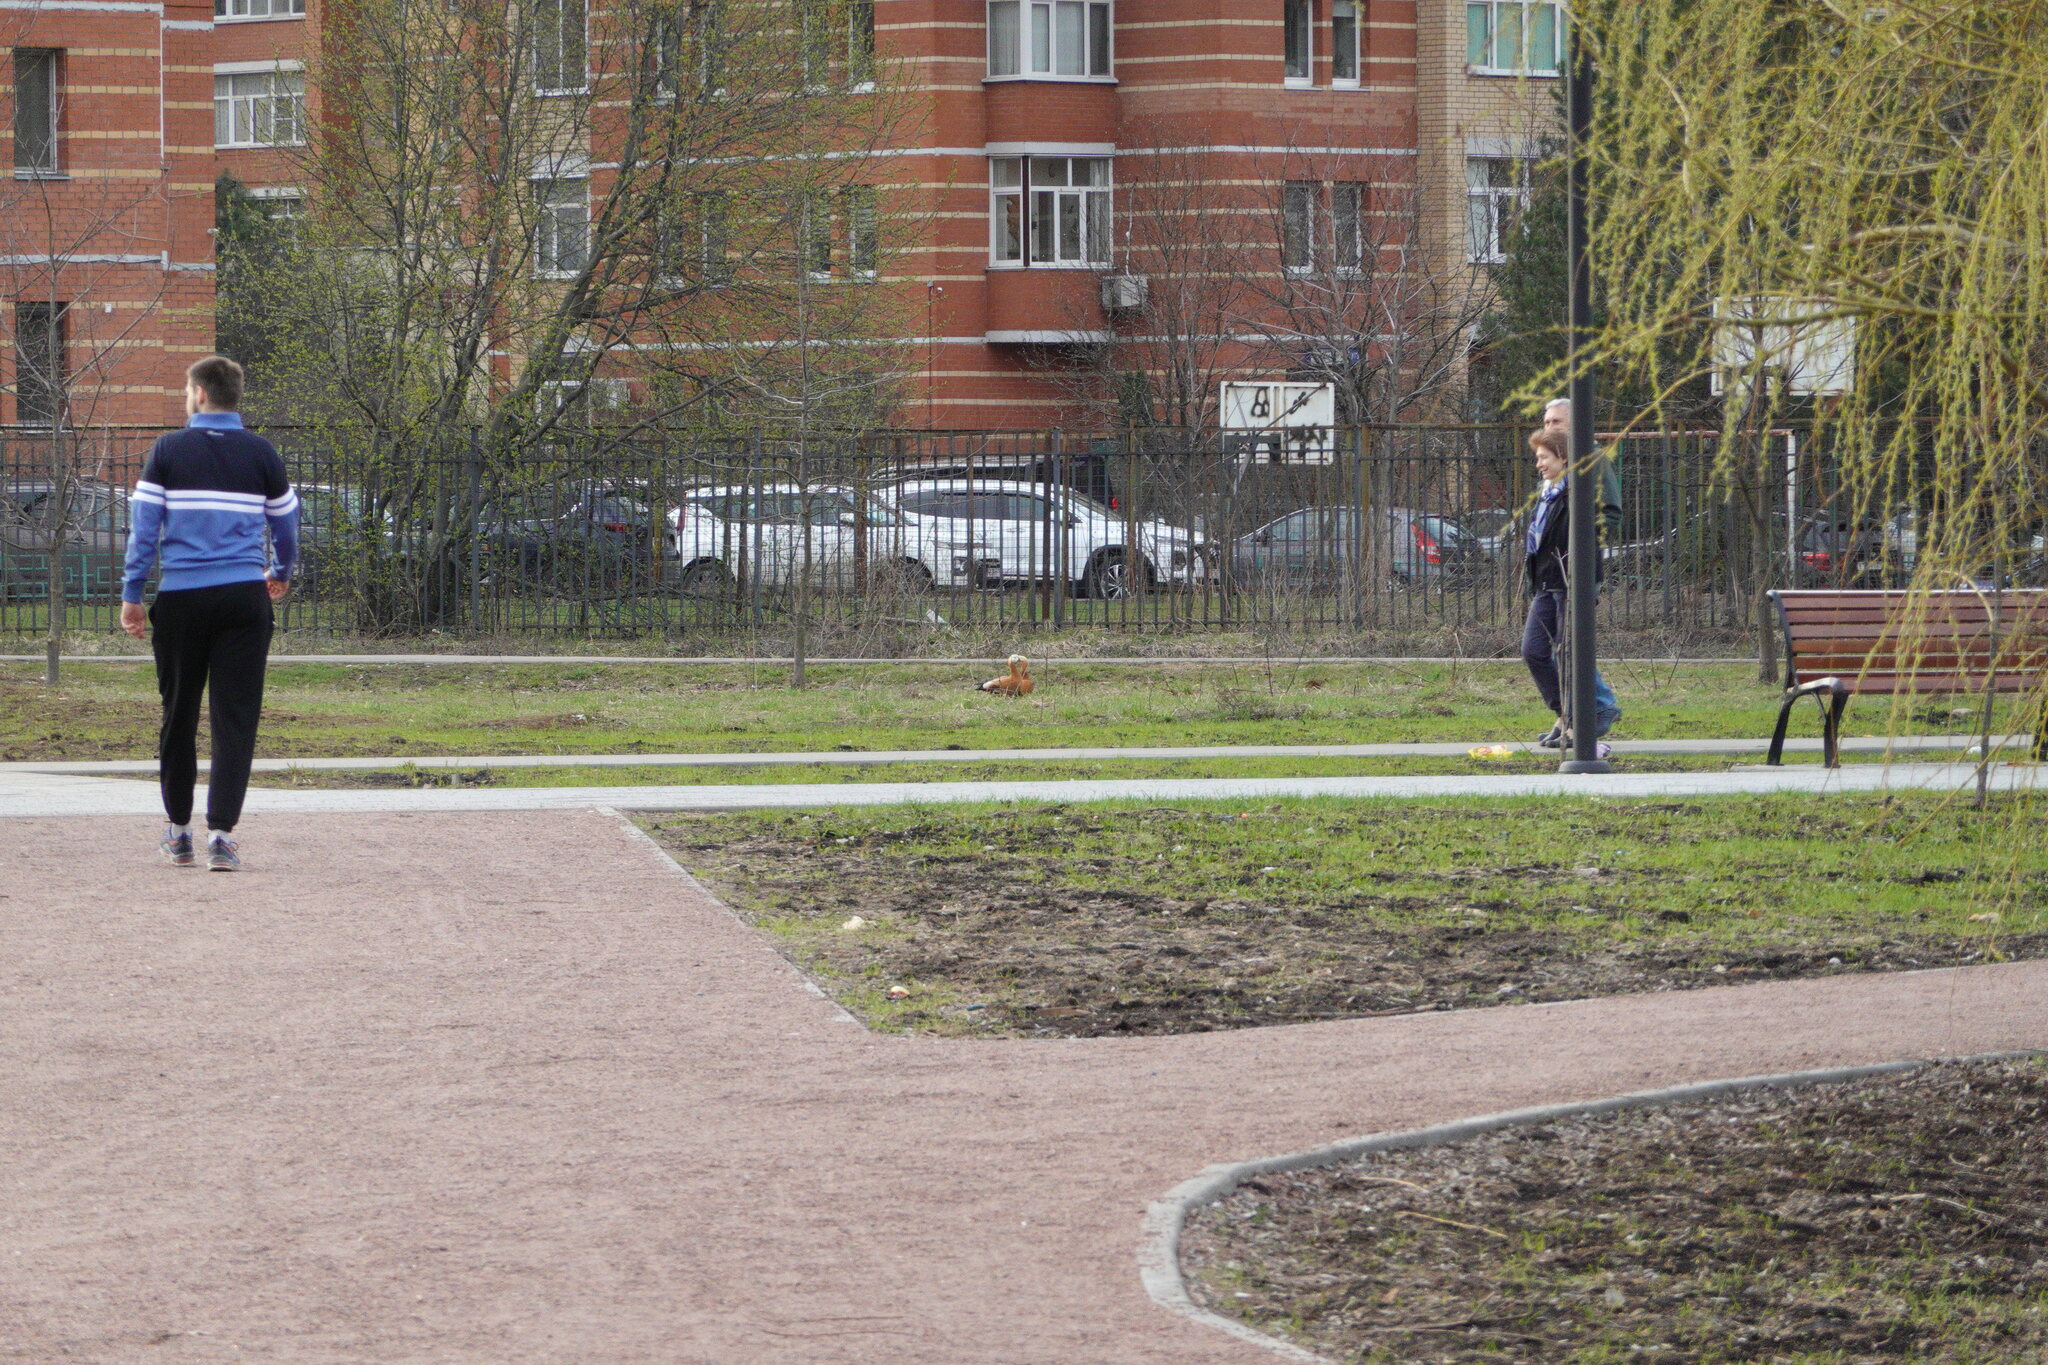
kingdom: Animalia
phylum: Chordata
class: Aves
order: Anseriformes
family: Anatidae
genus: Tadorna
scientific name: Tadorna ferruginea
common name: Ruddy shelduck
